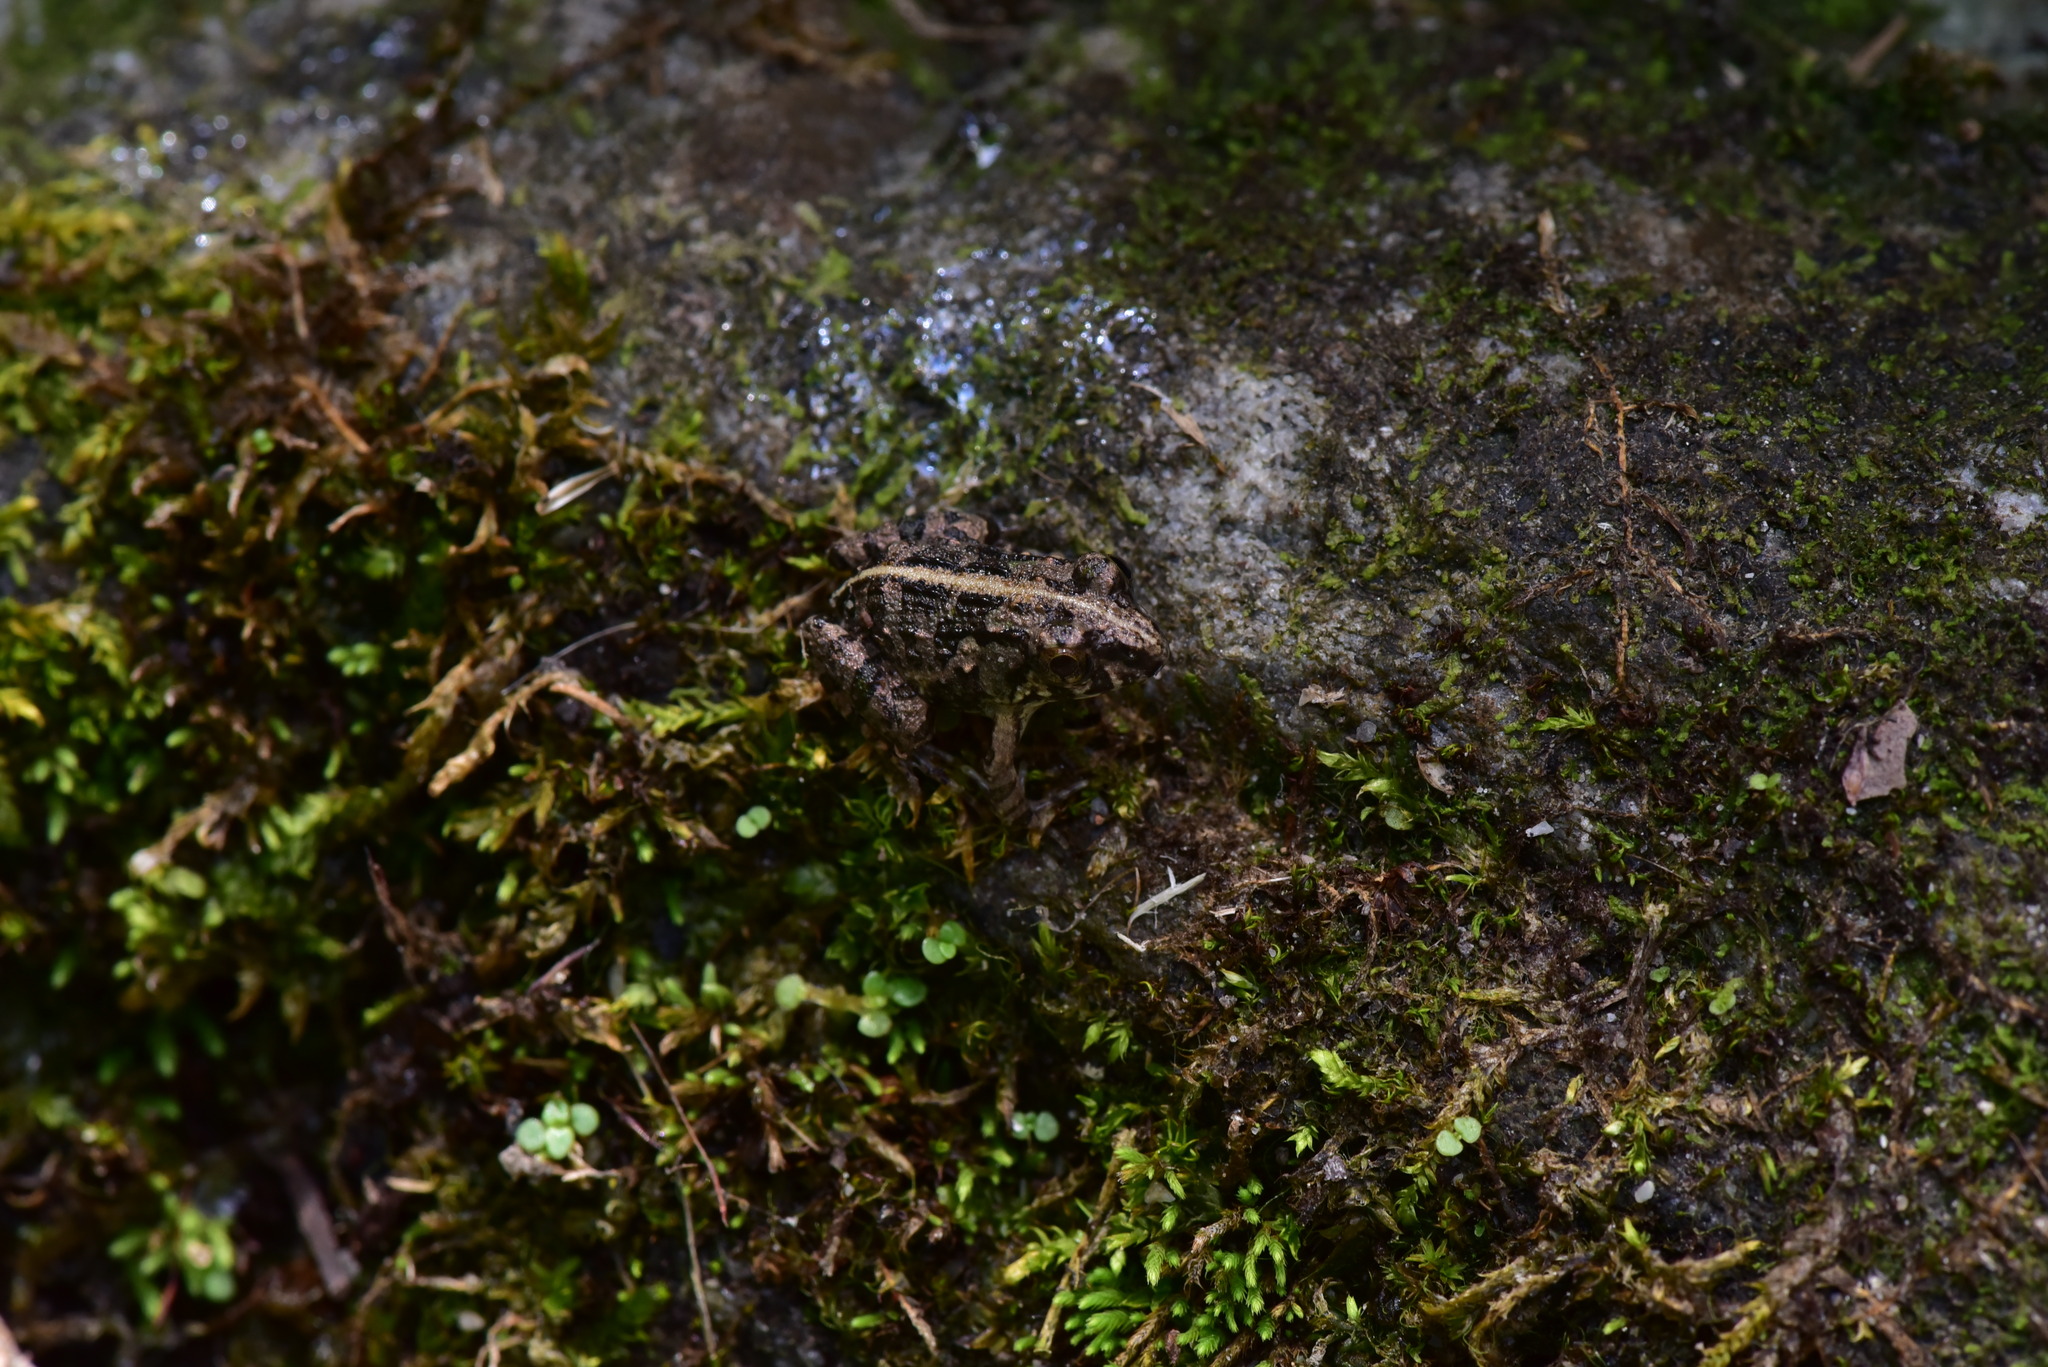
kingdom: Animalia
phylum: Chordata
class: Amphibia
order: Anura
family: Dicroglossidae
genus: Fejervarya
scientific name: Fejervarya limnocharis
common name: Asian grass frog/common pond frog/field frog/grass frog/indian rice frog
